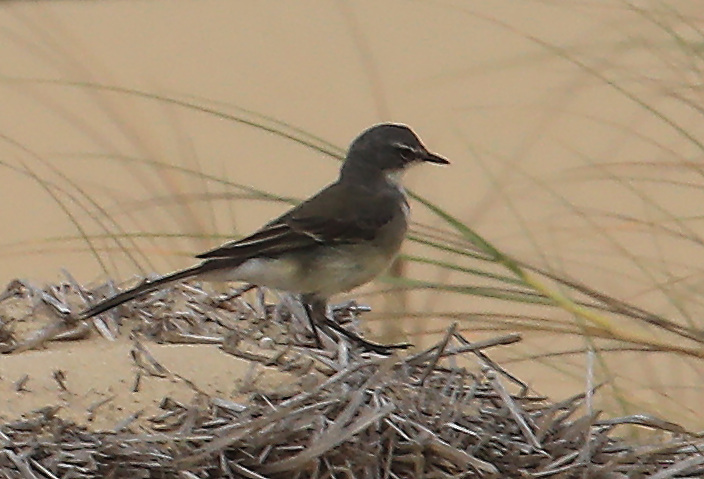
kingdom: Animalia
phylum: Chordata
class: Aves
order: Passeriformes
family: Motacillidae
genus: Motacilla
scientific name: Motacilla capensis
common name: Cape wagtail
